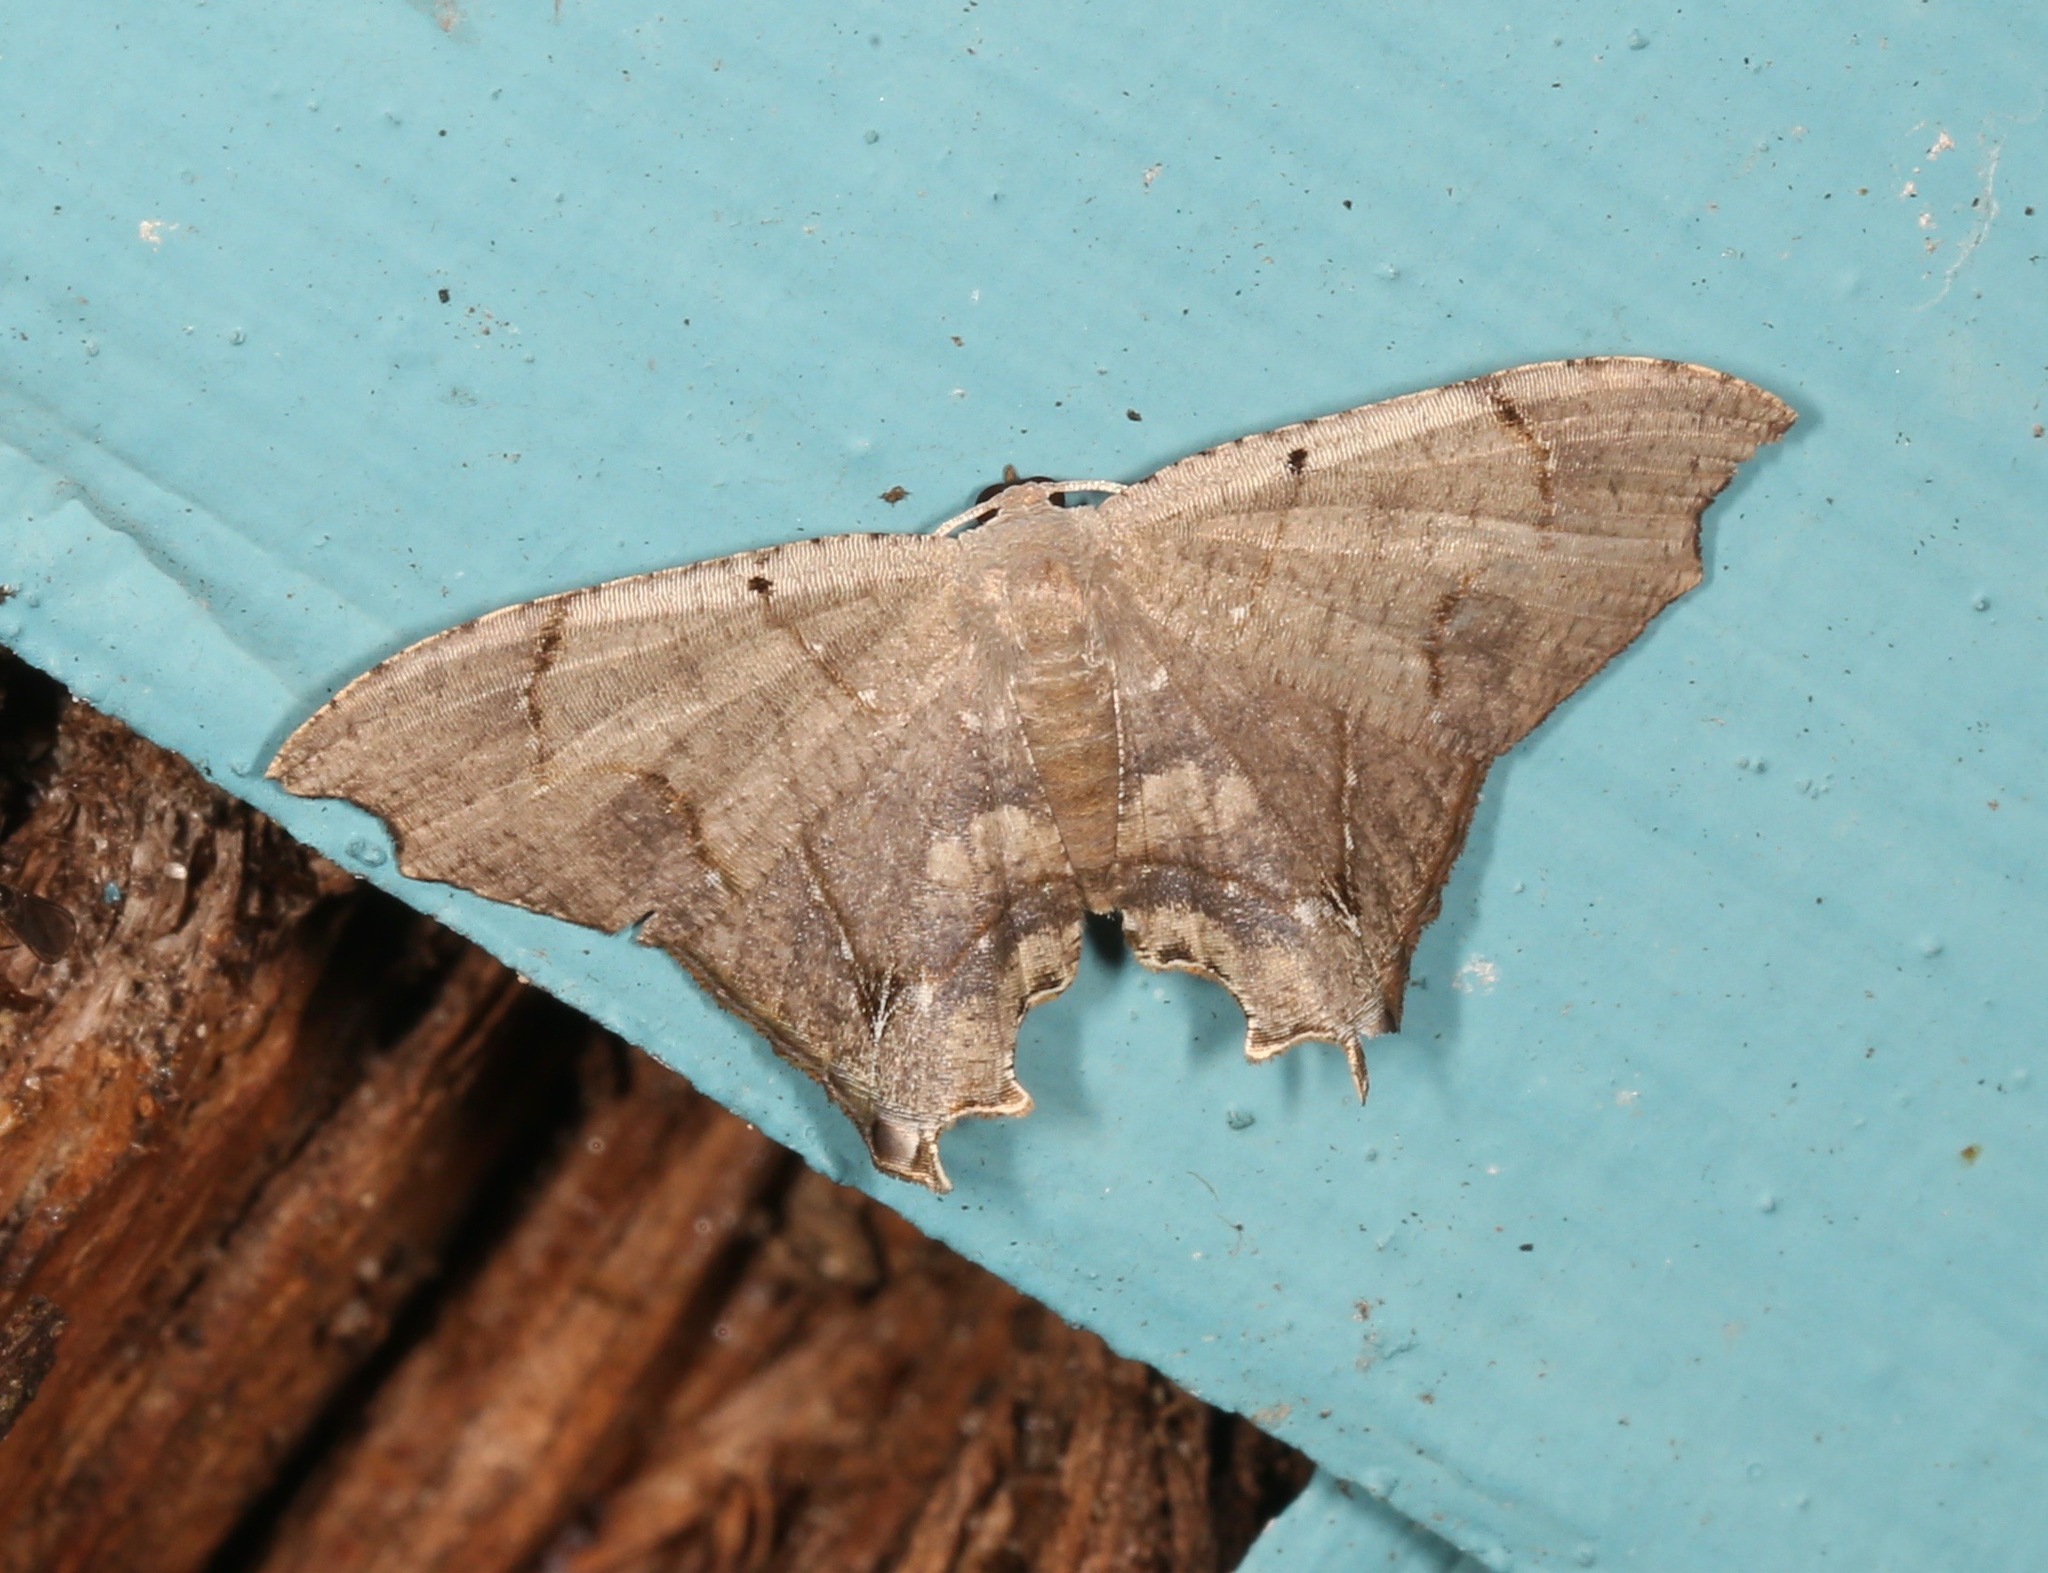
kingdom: Animalia
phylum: Arthropoda
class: Insecta
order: Lepidoptera
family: Uraniidae
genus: Trotorhombia
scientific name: Trotorhombia metachromata
